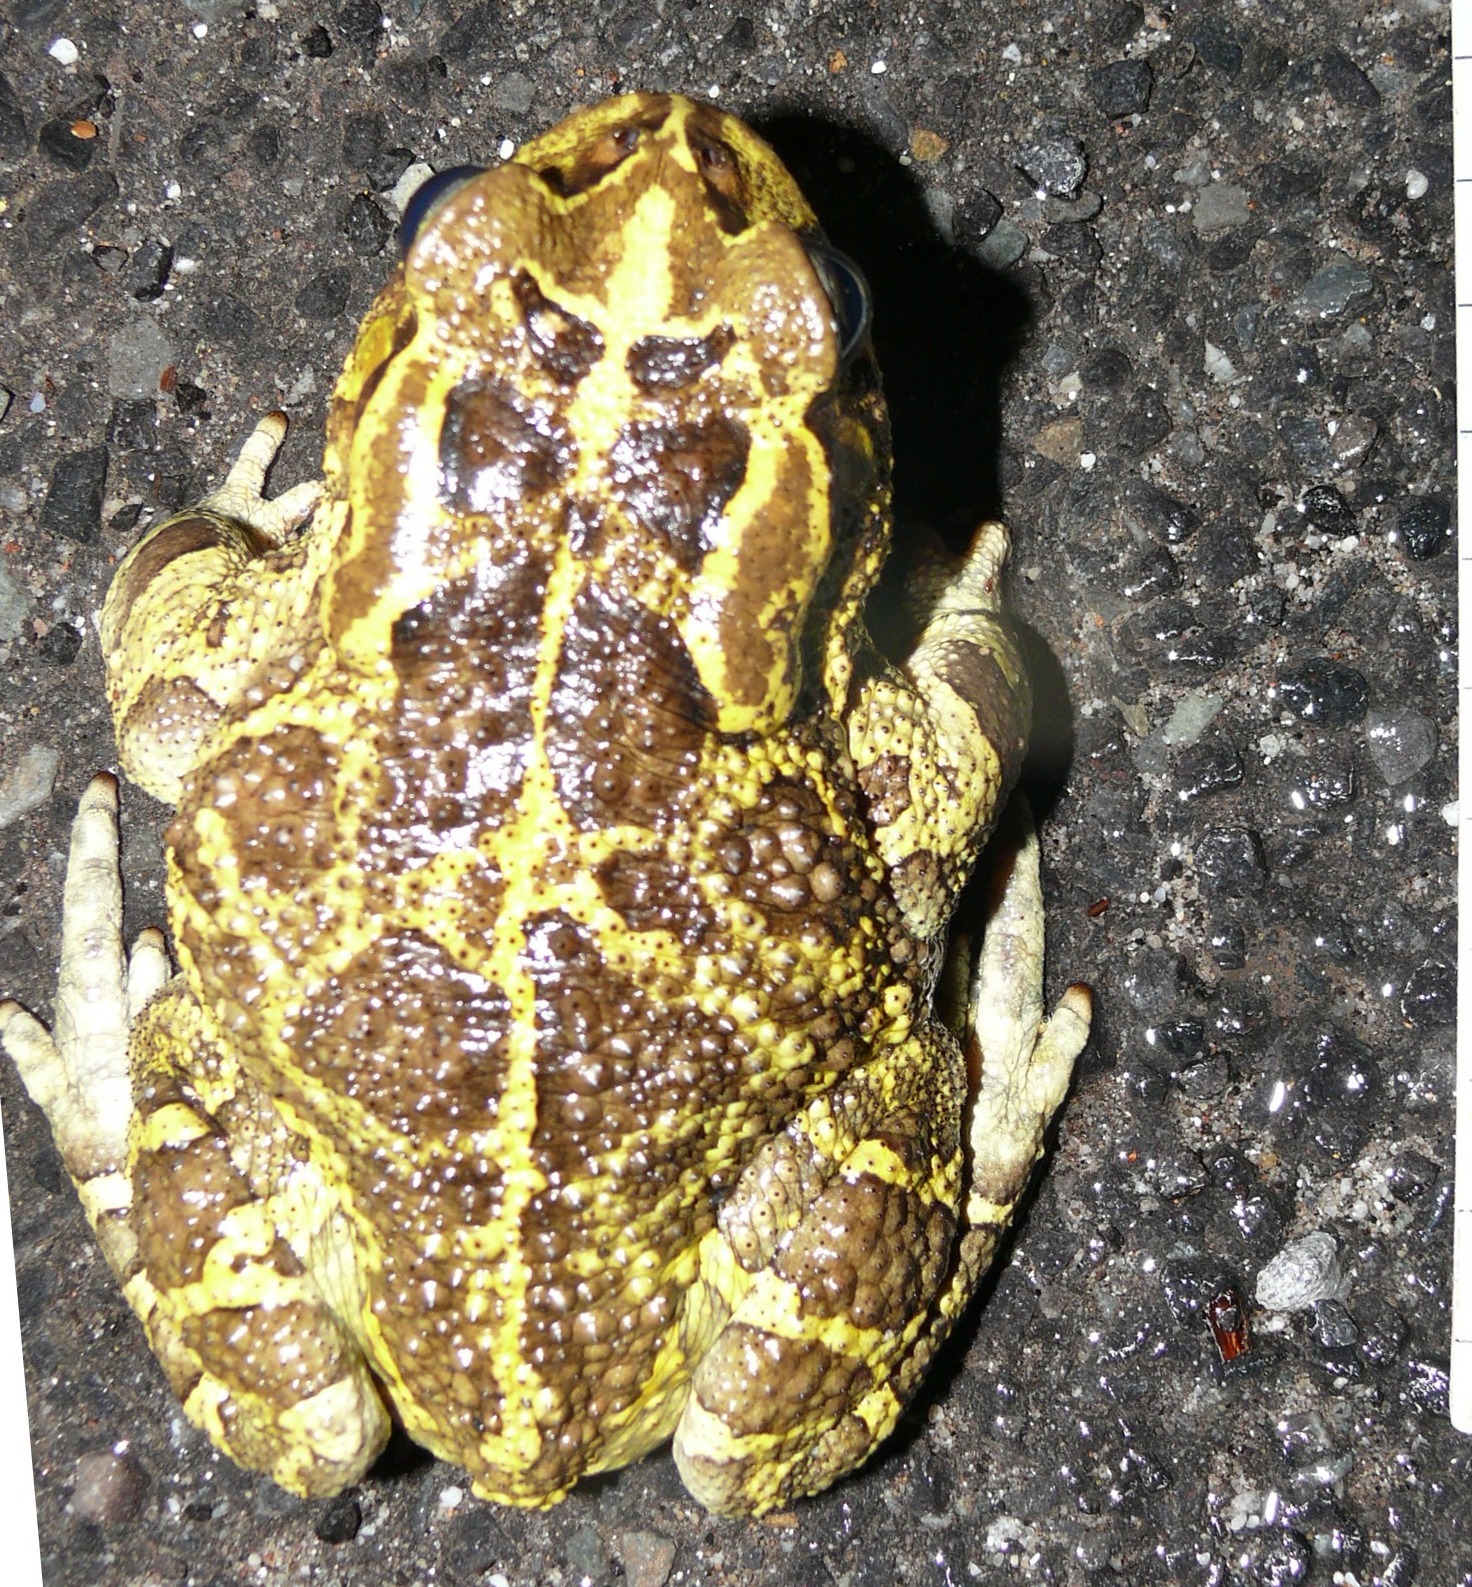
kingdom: Animalia
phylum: Chordata
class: Amphibia
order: Anura
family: Bufonidae
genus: Sclerophrys
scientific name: Sclerophrys pantherina
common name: Panther toad
